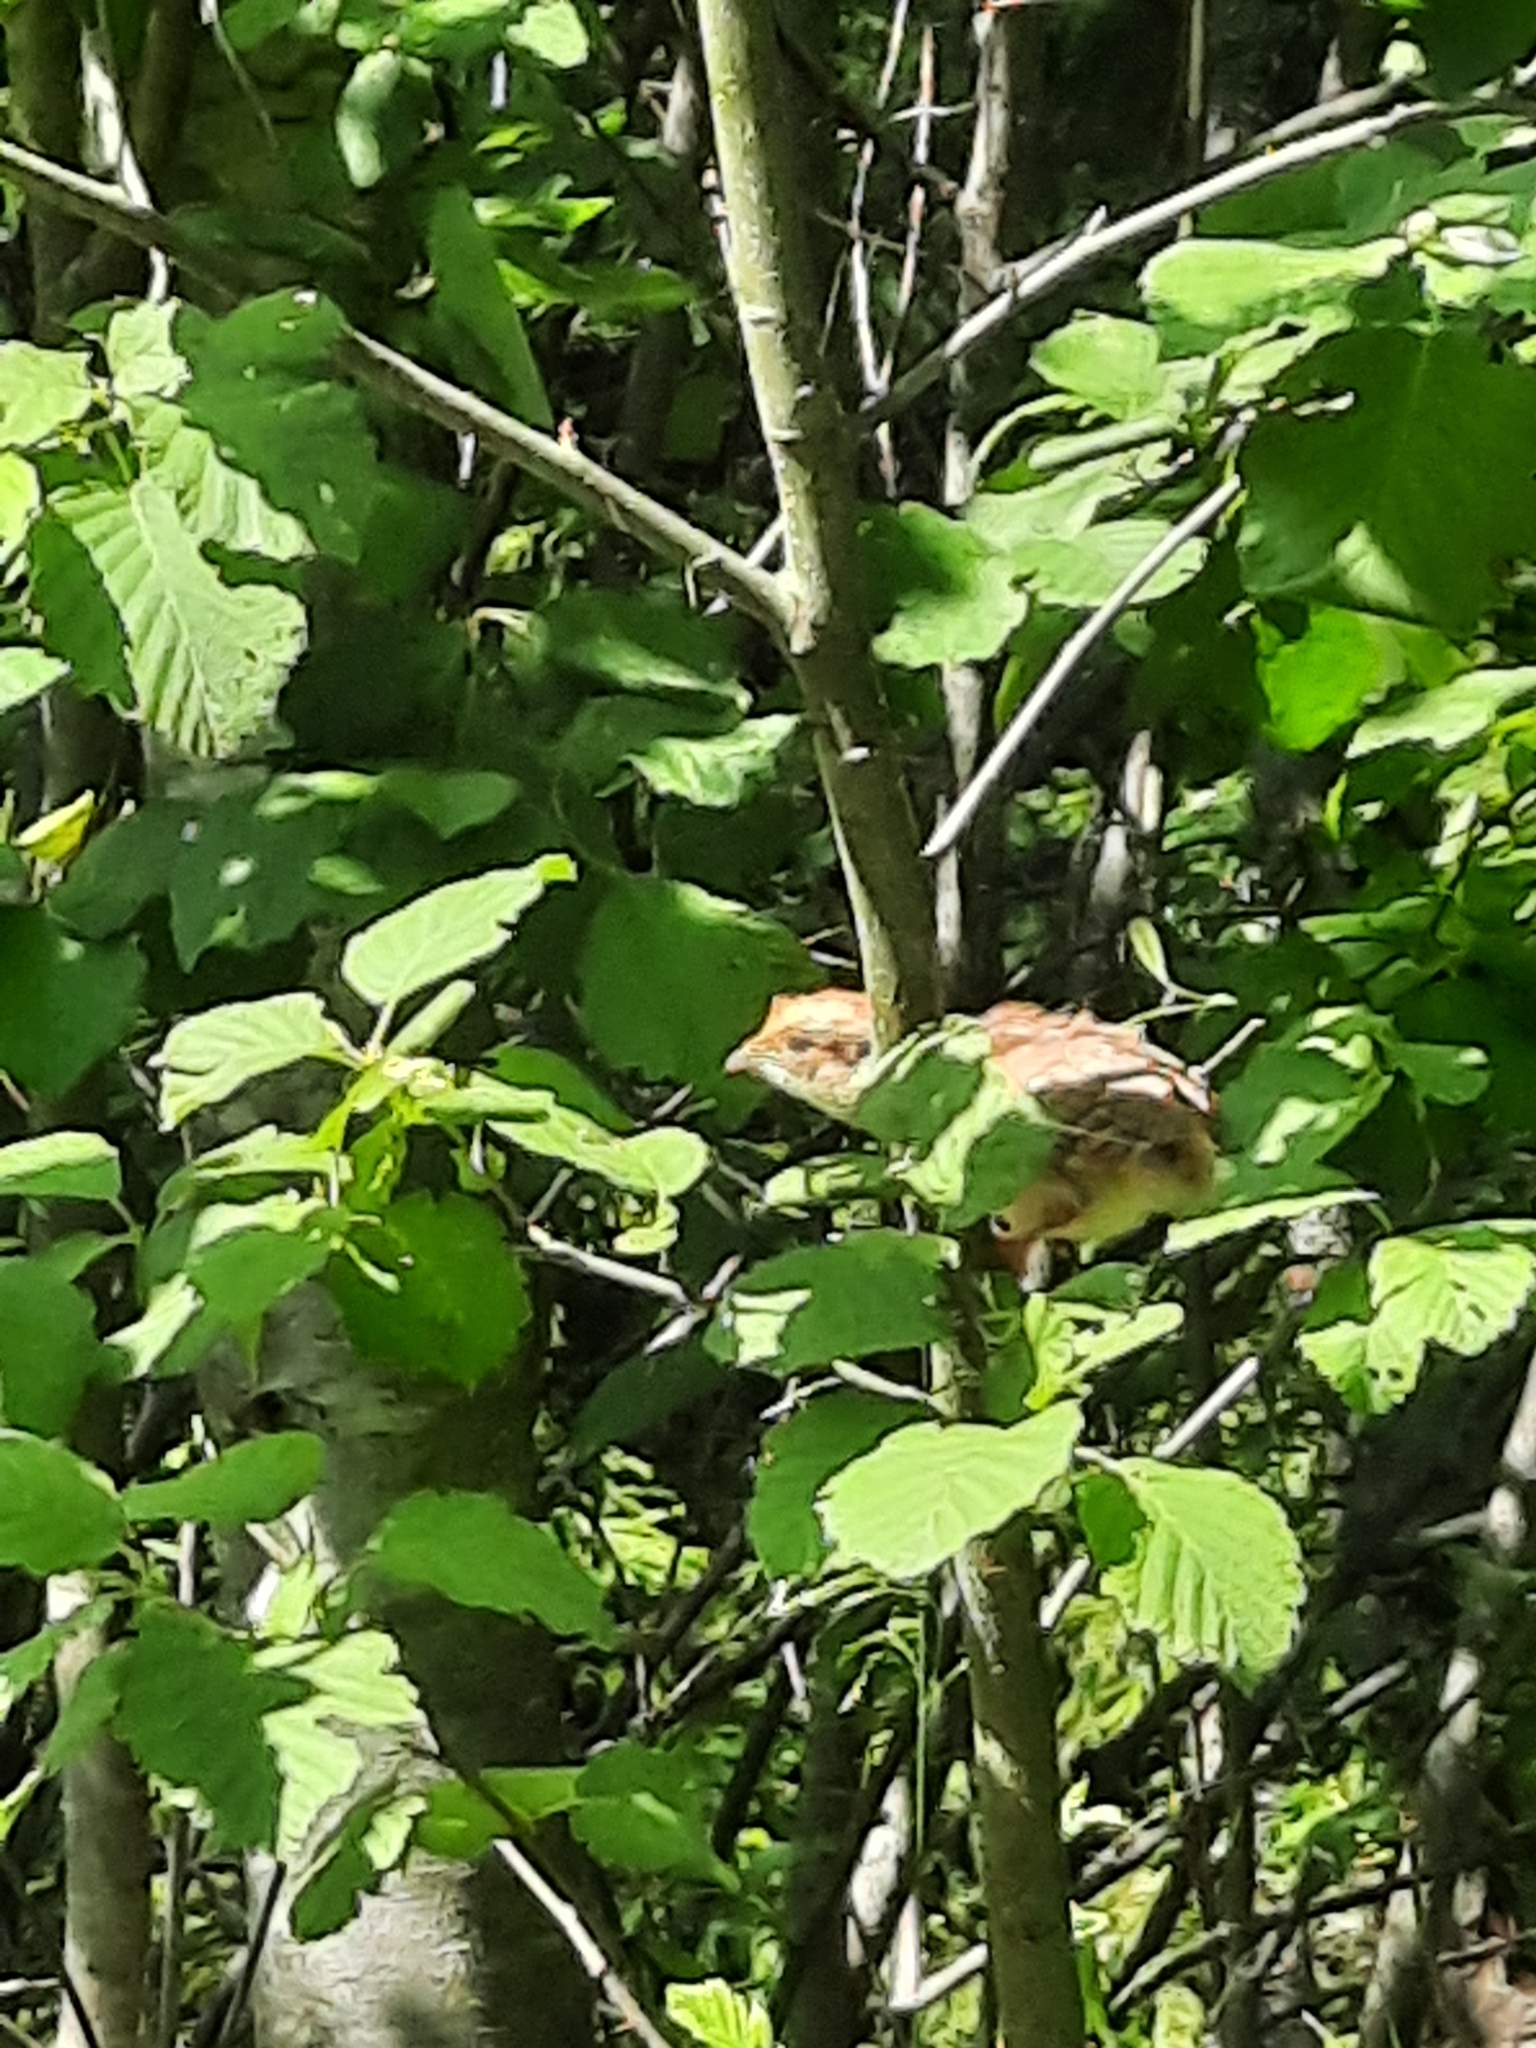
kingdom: Animalia
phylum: Chordata
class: Aves
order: Galliformes
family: Phasianidae
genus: Tetrastes
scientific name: Tetrastes bonasia
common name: Hazel grouse
